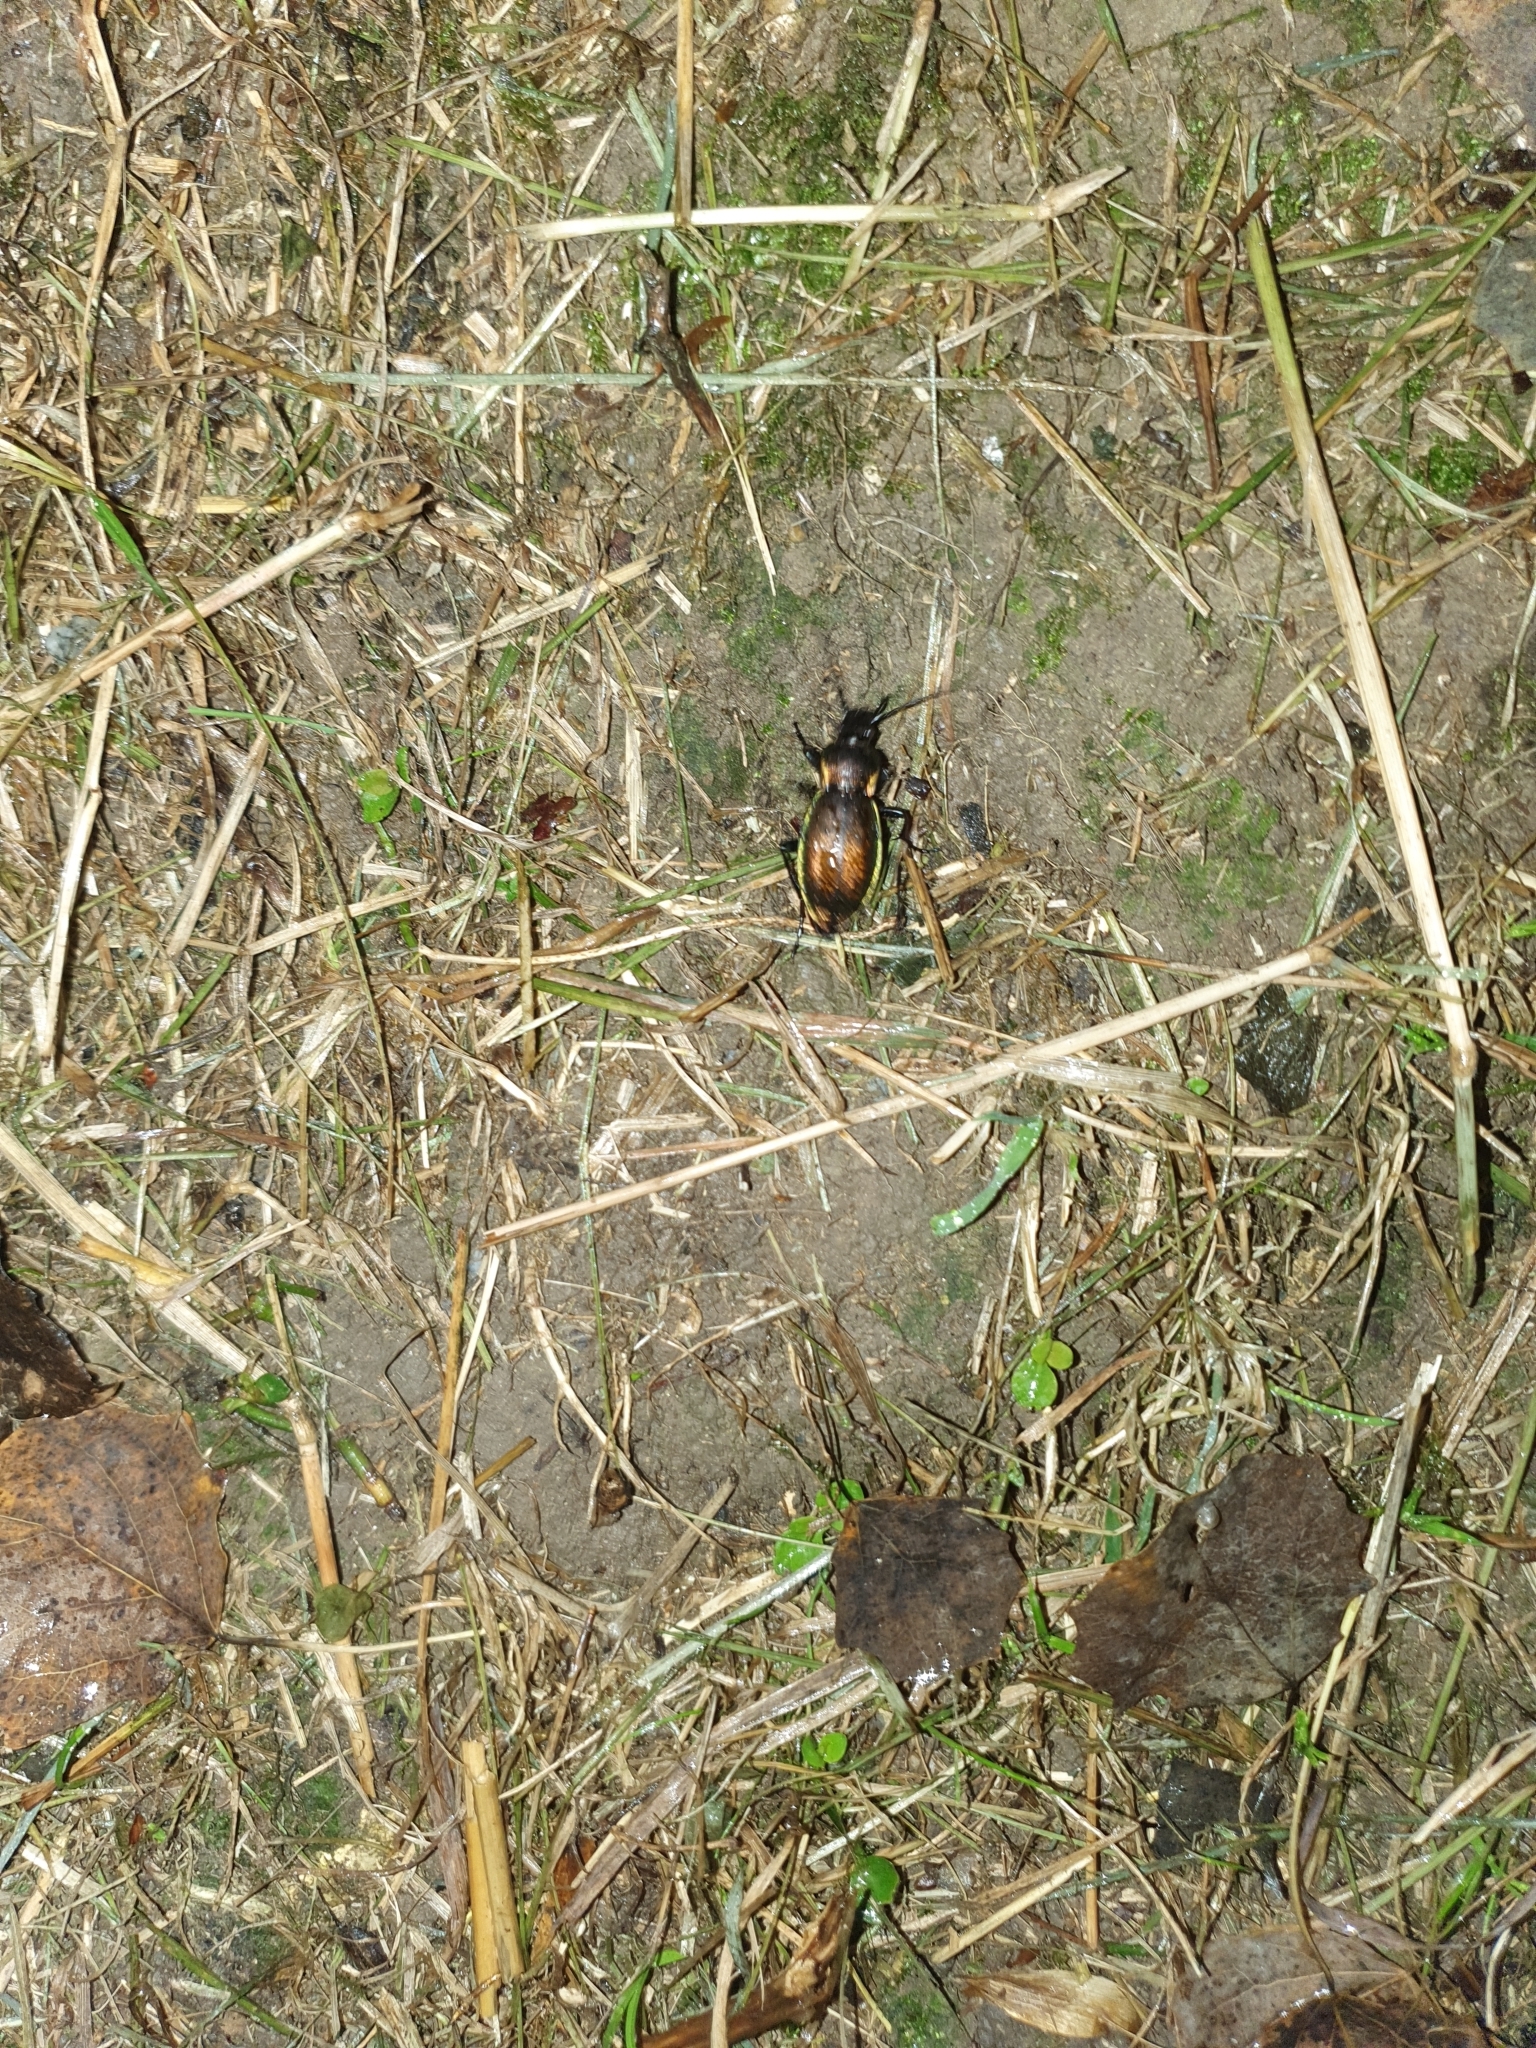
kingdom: Animalia
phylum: Arthropoda
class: Insecta
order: Coleoptera
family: Carabidae
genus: Carabus
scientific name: Carabus scheidleri
